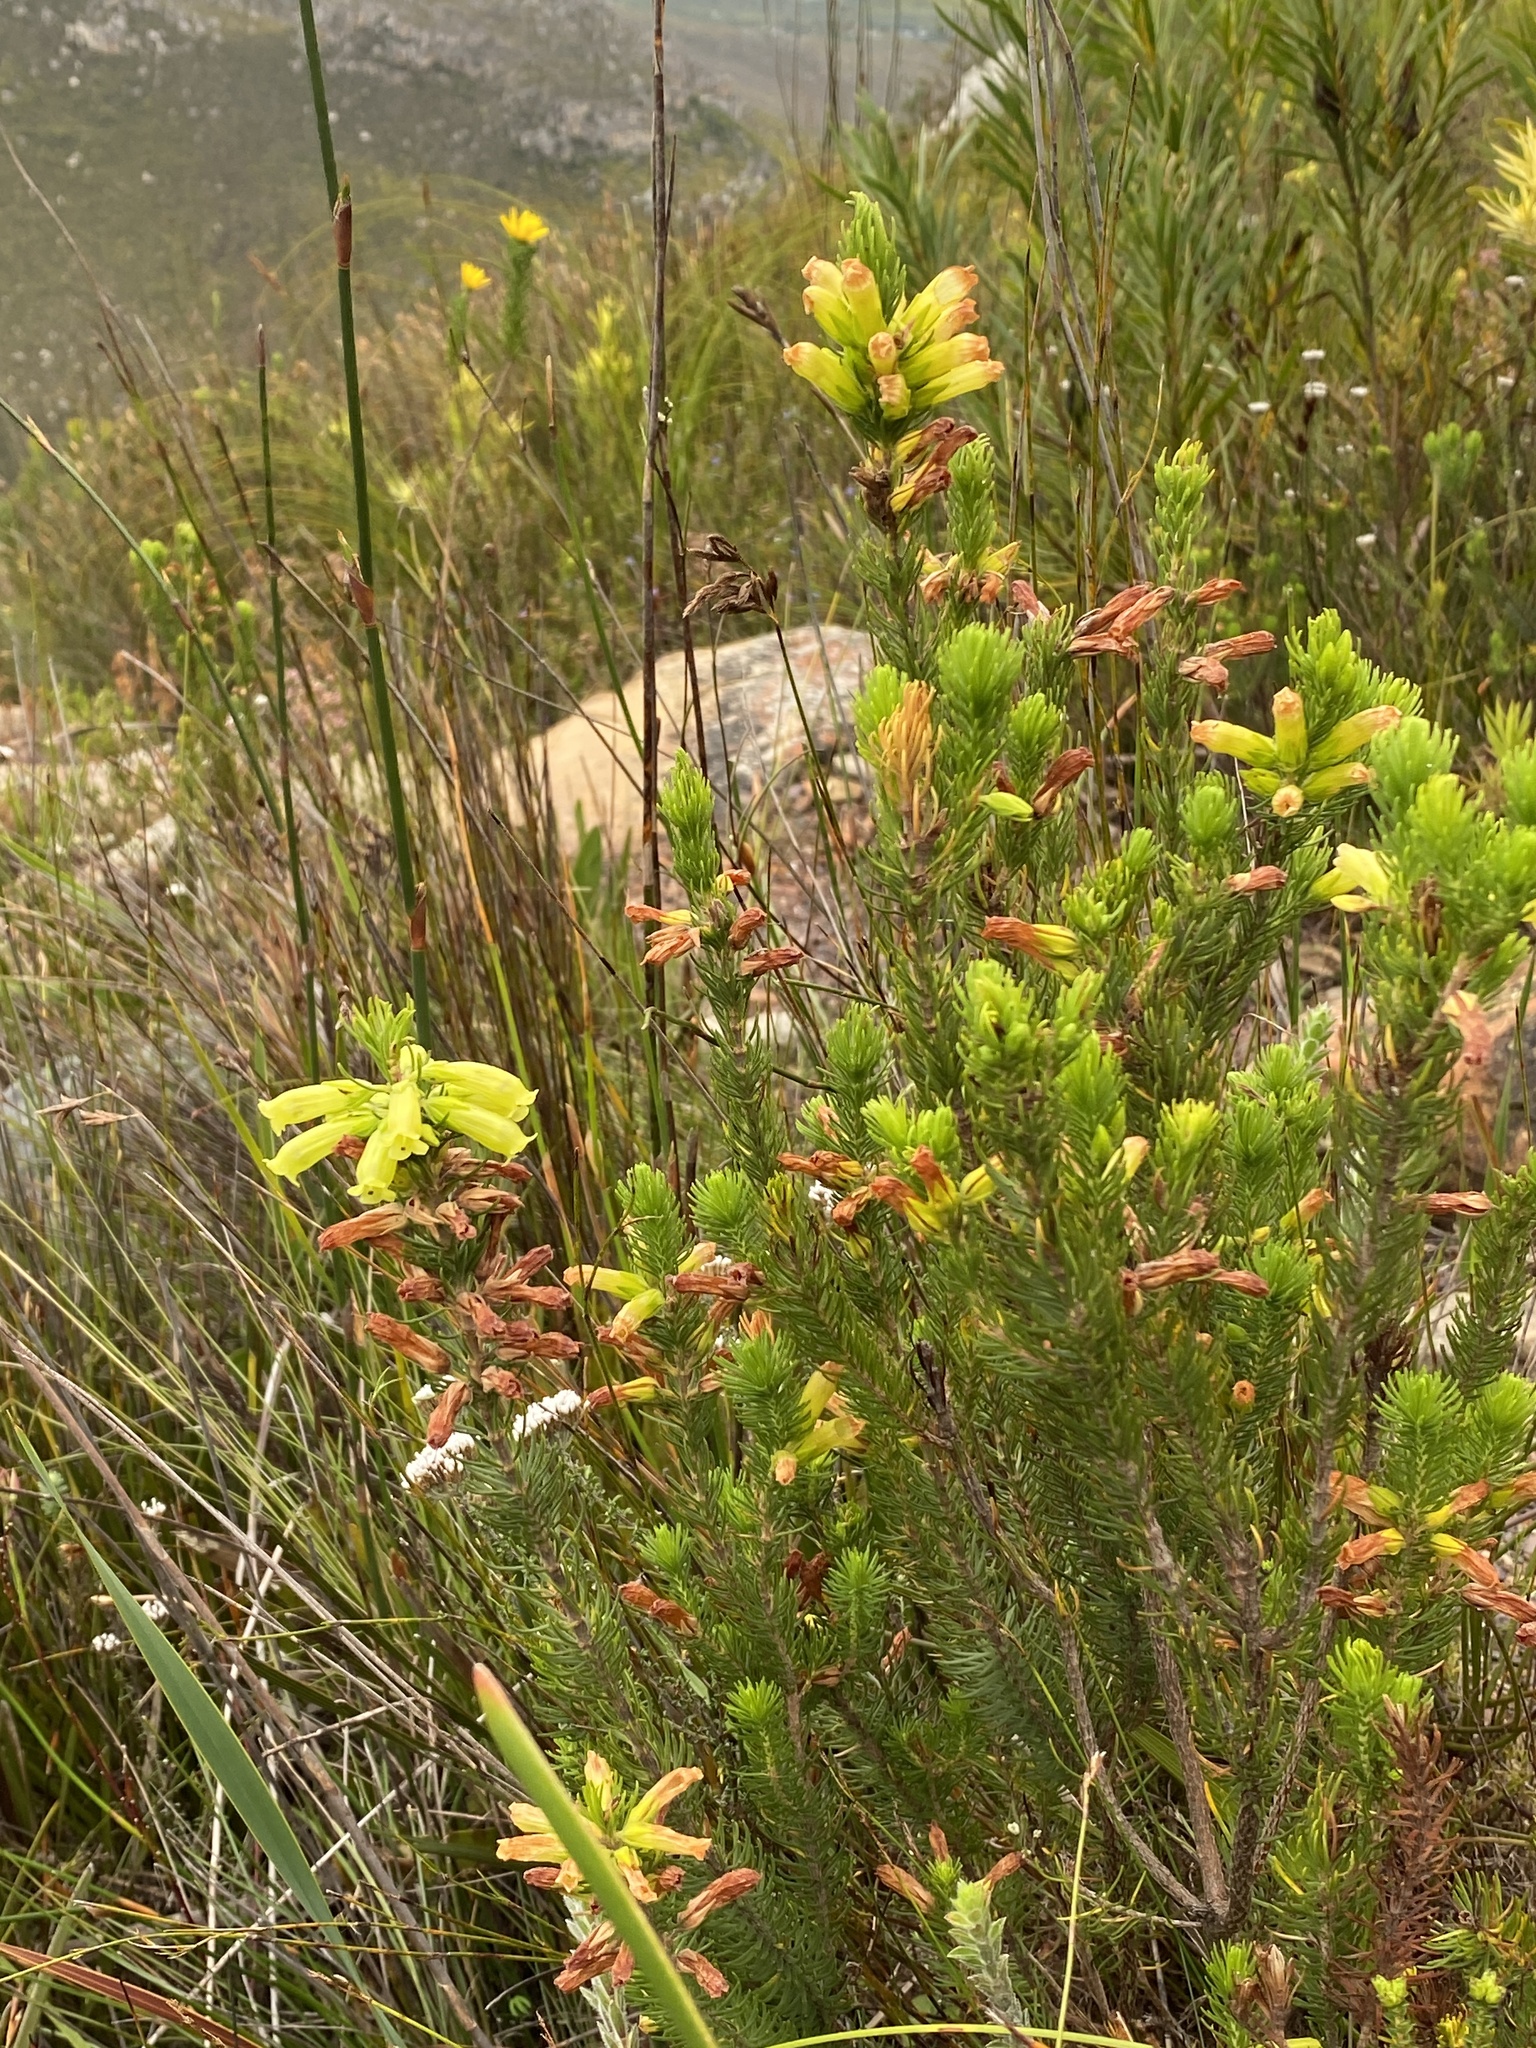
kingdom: Plantae
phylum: Tracheophyta
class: Magnoliopsida
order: Ericales
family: Ericaceae
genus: Erica
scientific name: Erica viscaria
